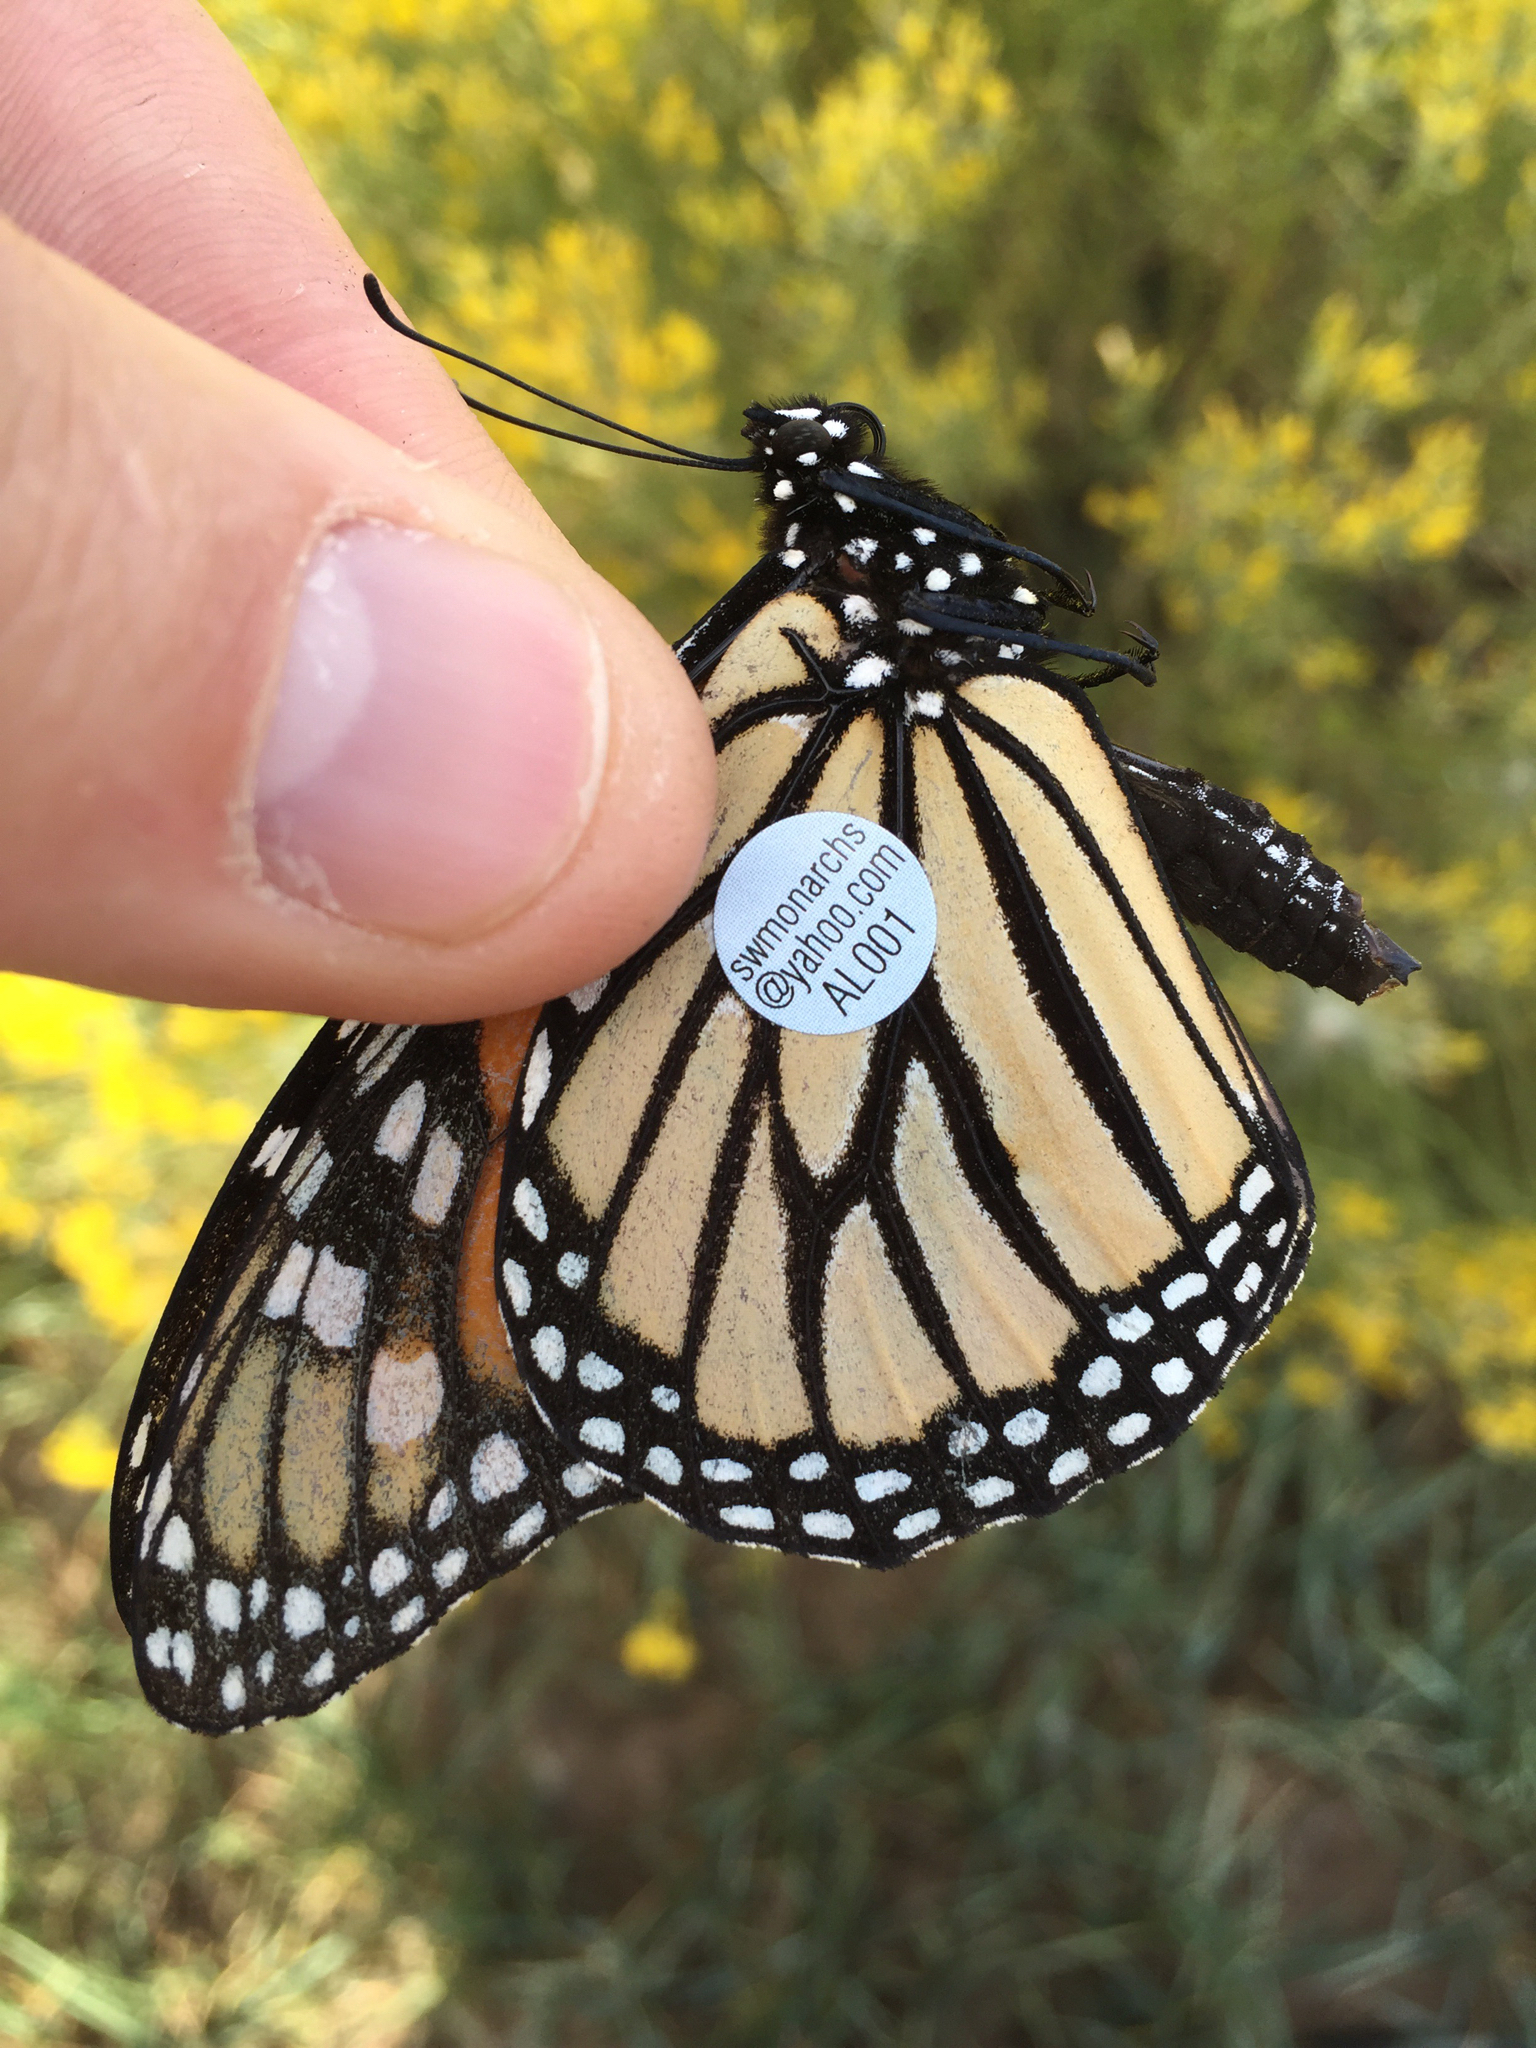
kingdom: Animalia
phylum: Arthropoda
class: Insecta
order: Lepidoptera
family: Nymphalidae
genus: Danaus
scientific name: Danaus plexippus
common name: Monarch
